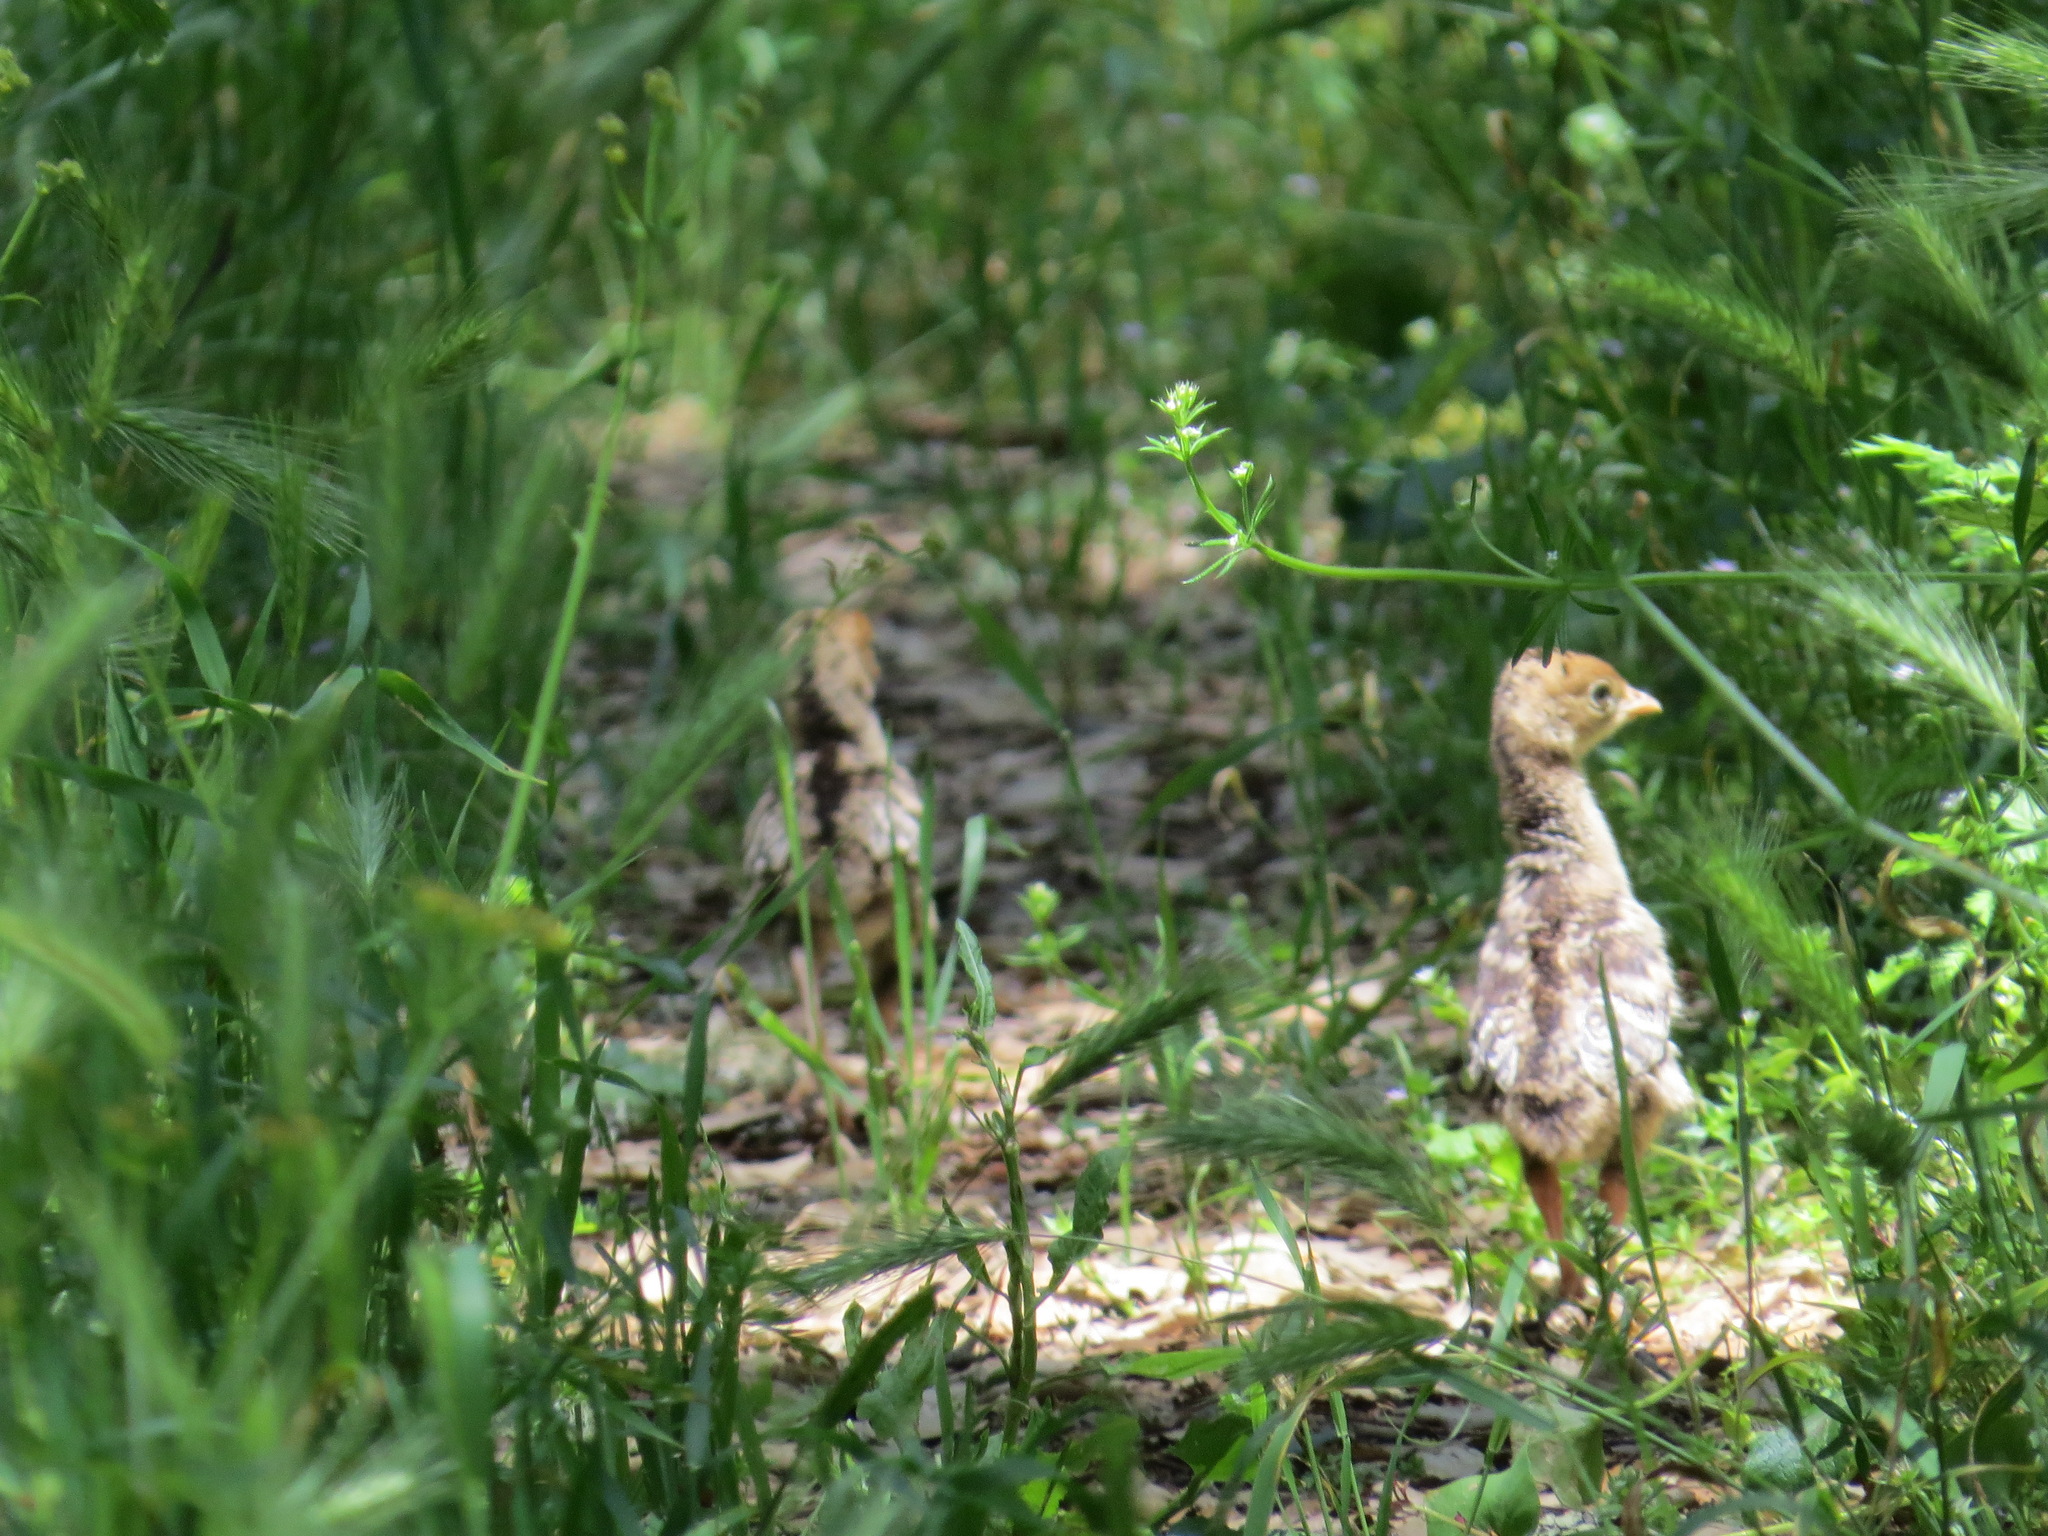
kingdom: Animalia
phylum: Chordata
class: Aves
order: Galliformes
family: Phasianidae
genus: Meleagris
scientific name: Meleagris gallopavo
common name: Wild turkey
